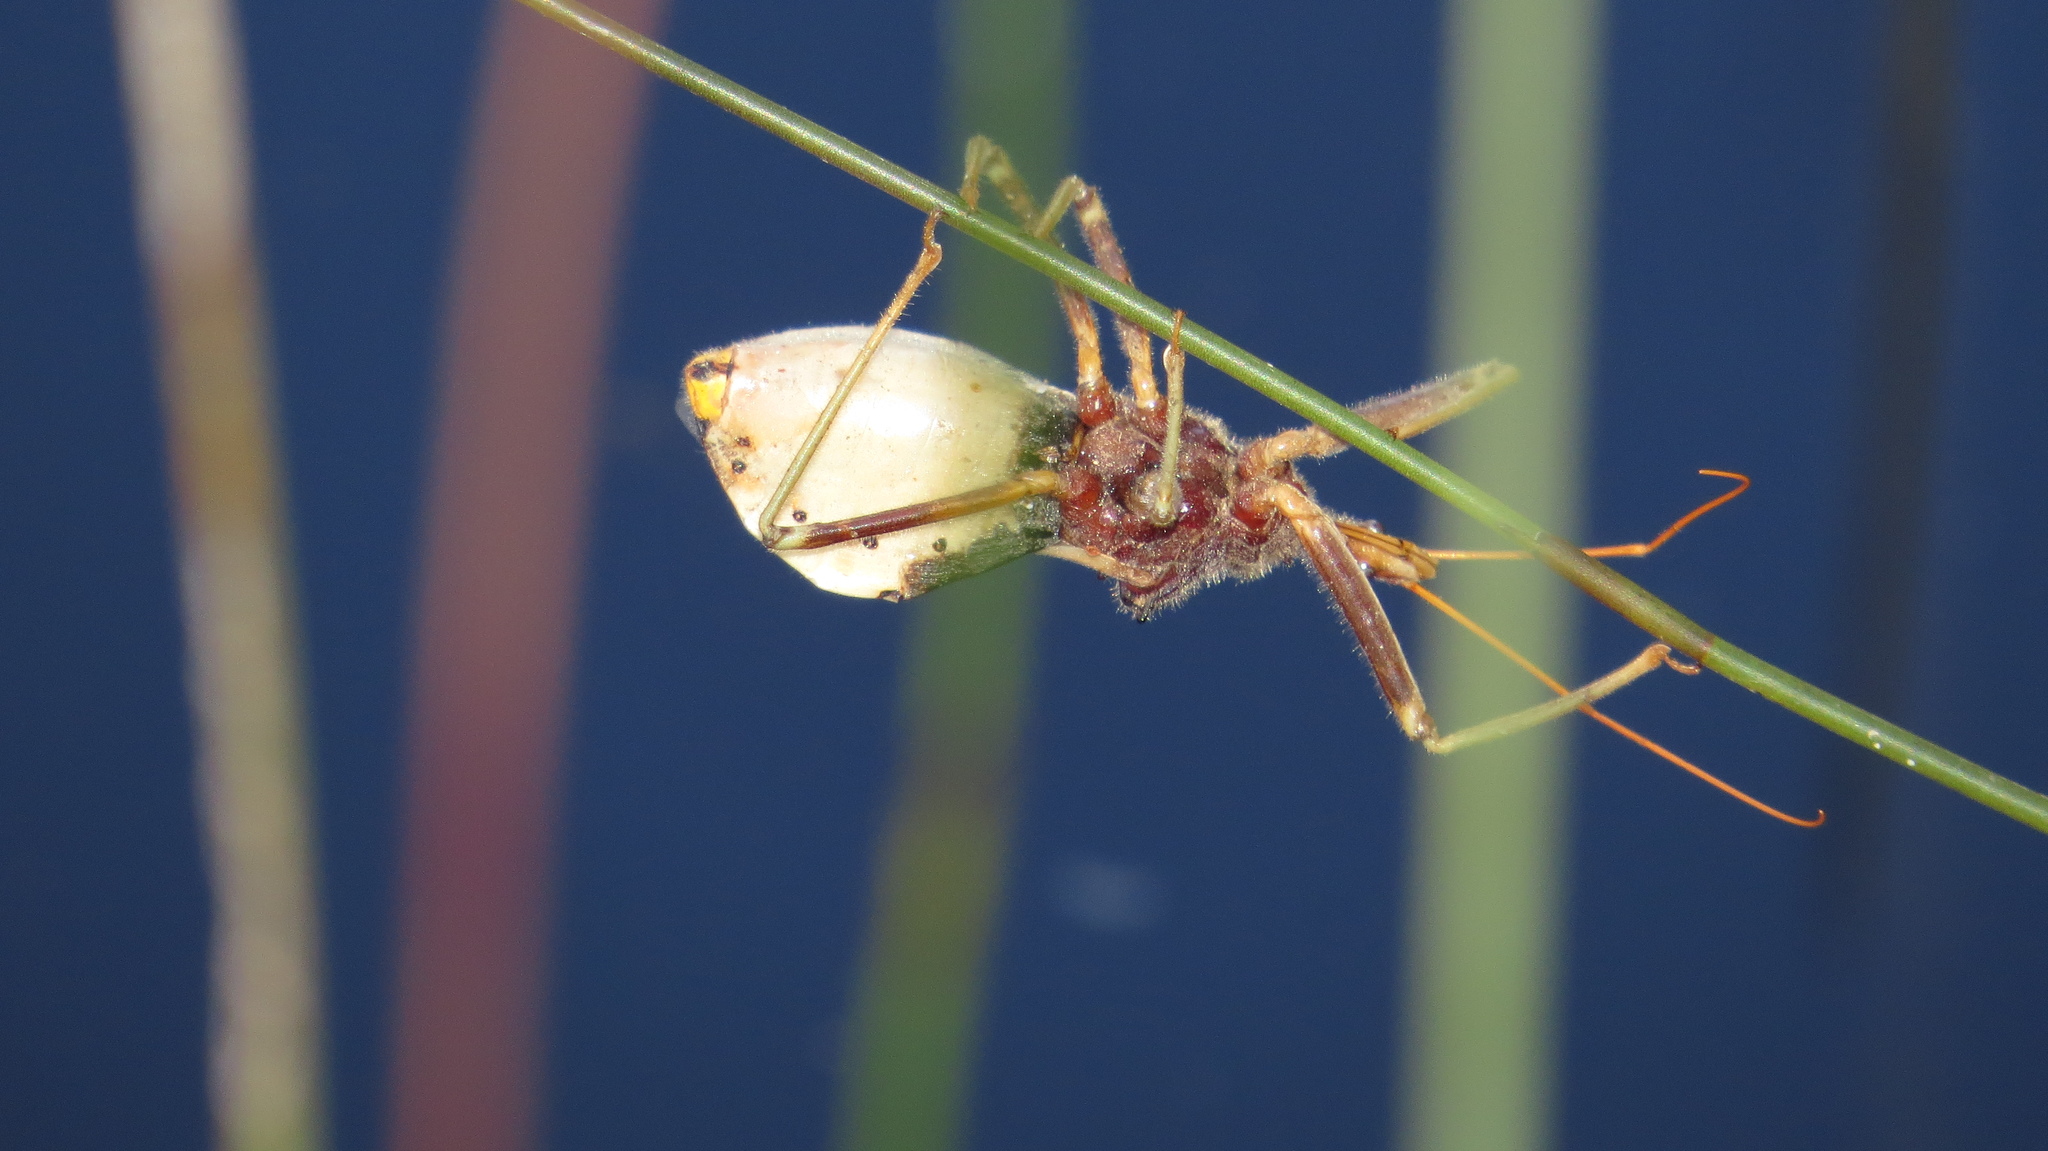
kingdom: Animalia
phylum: Arthropoda
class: Insecta
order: Hemiptera
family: Reduviidae
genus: Pristhesancus
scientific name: Pristhesancus plagipennis
